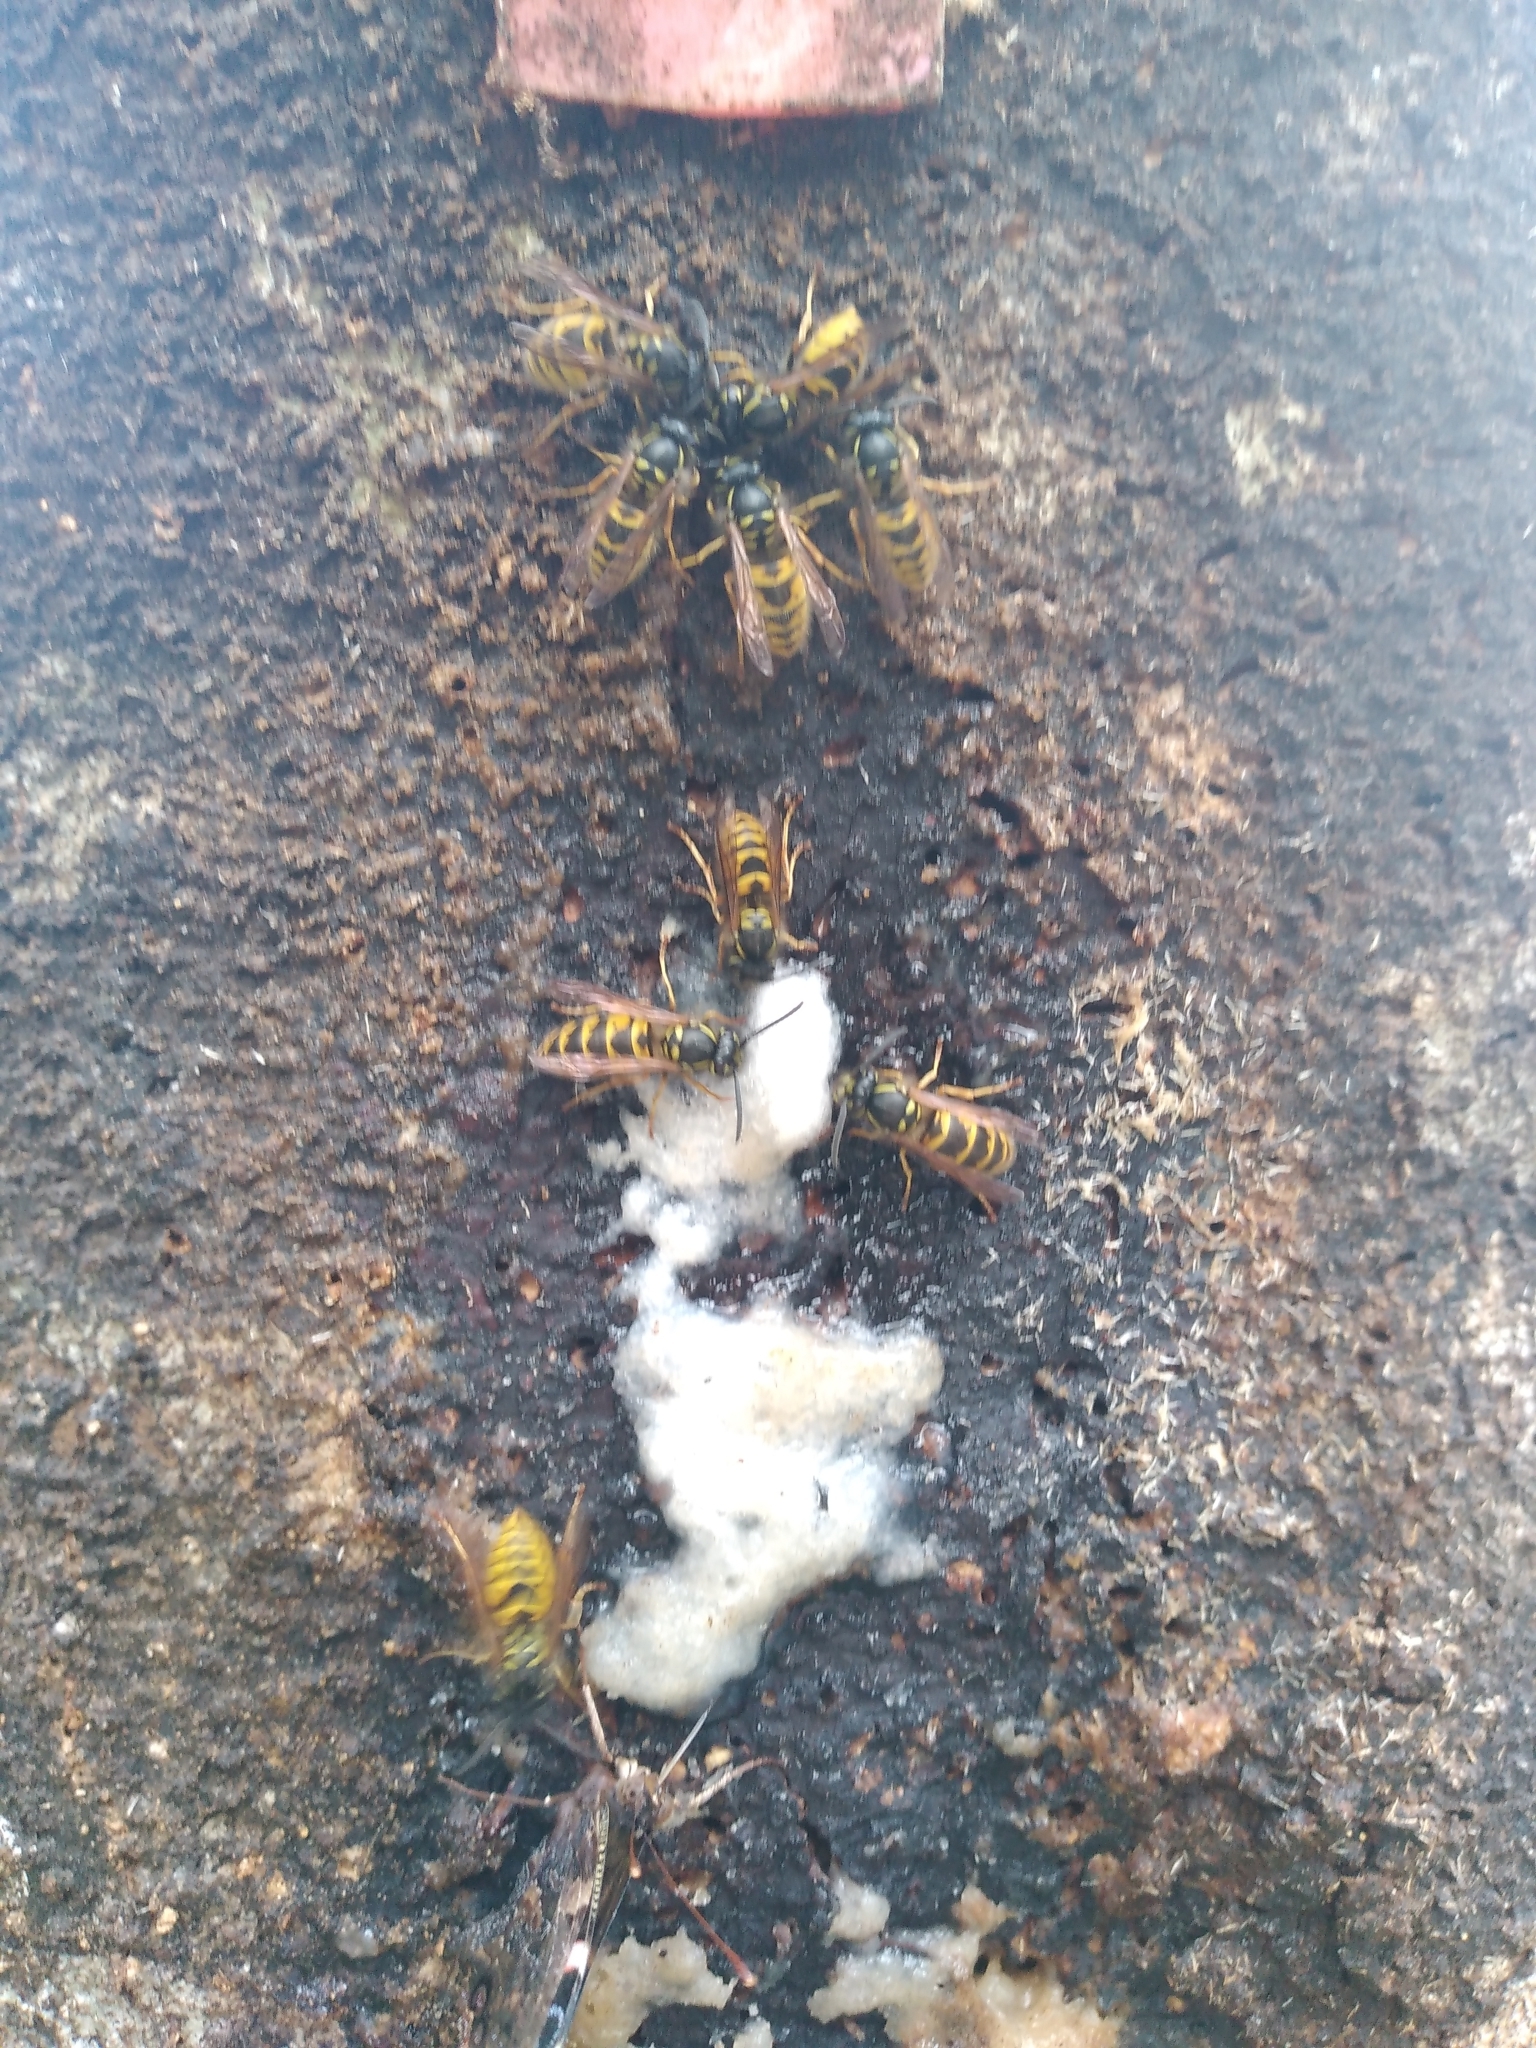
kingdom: Animalia
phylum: Arthropoda
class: Insecta
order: Hymenoptera
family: Vespidae
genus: Vespula
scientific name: Vespula vulgaris
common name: Common wasp
